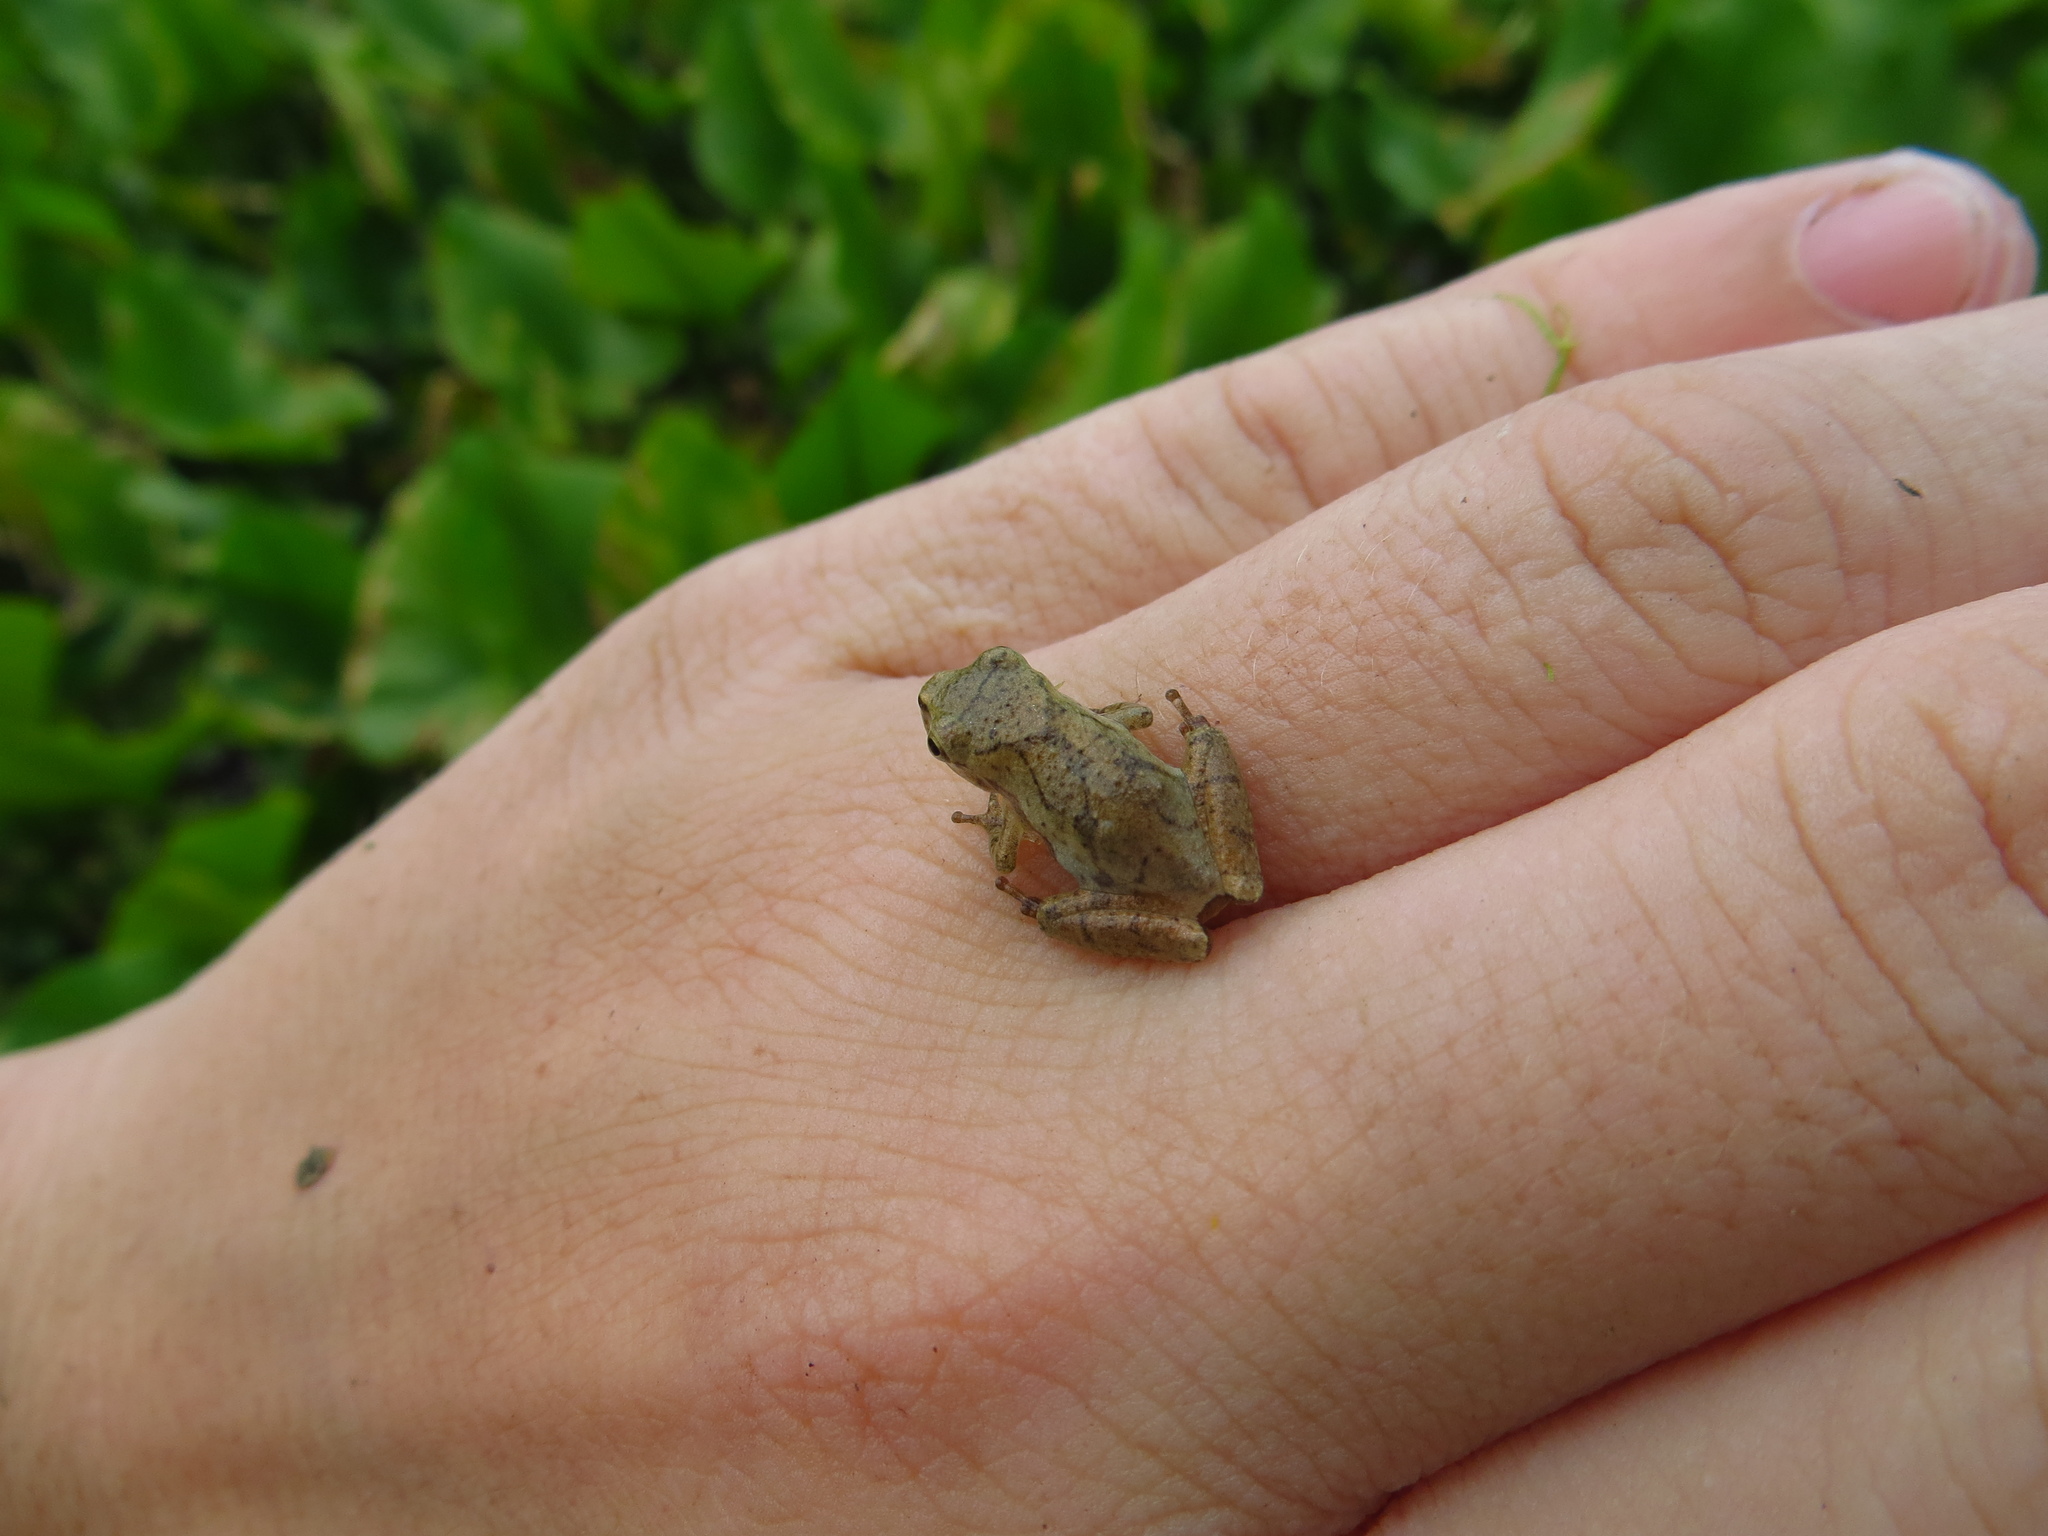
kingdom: Animalia
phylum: Chordata
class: Amphibia
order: Anura
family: Hylidae
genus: Pseudacris
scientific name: Pseudacris crucifer
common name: Spring peeper
